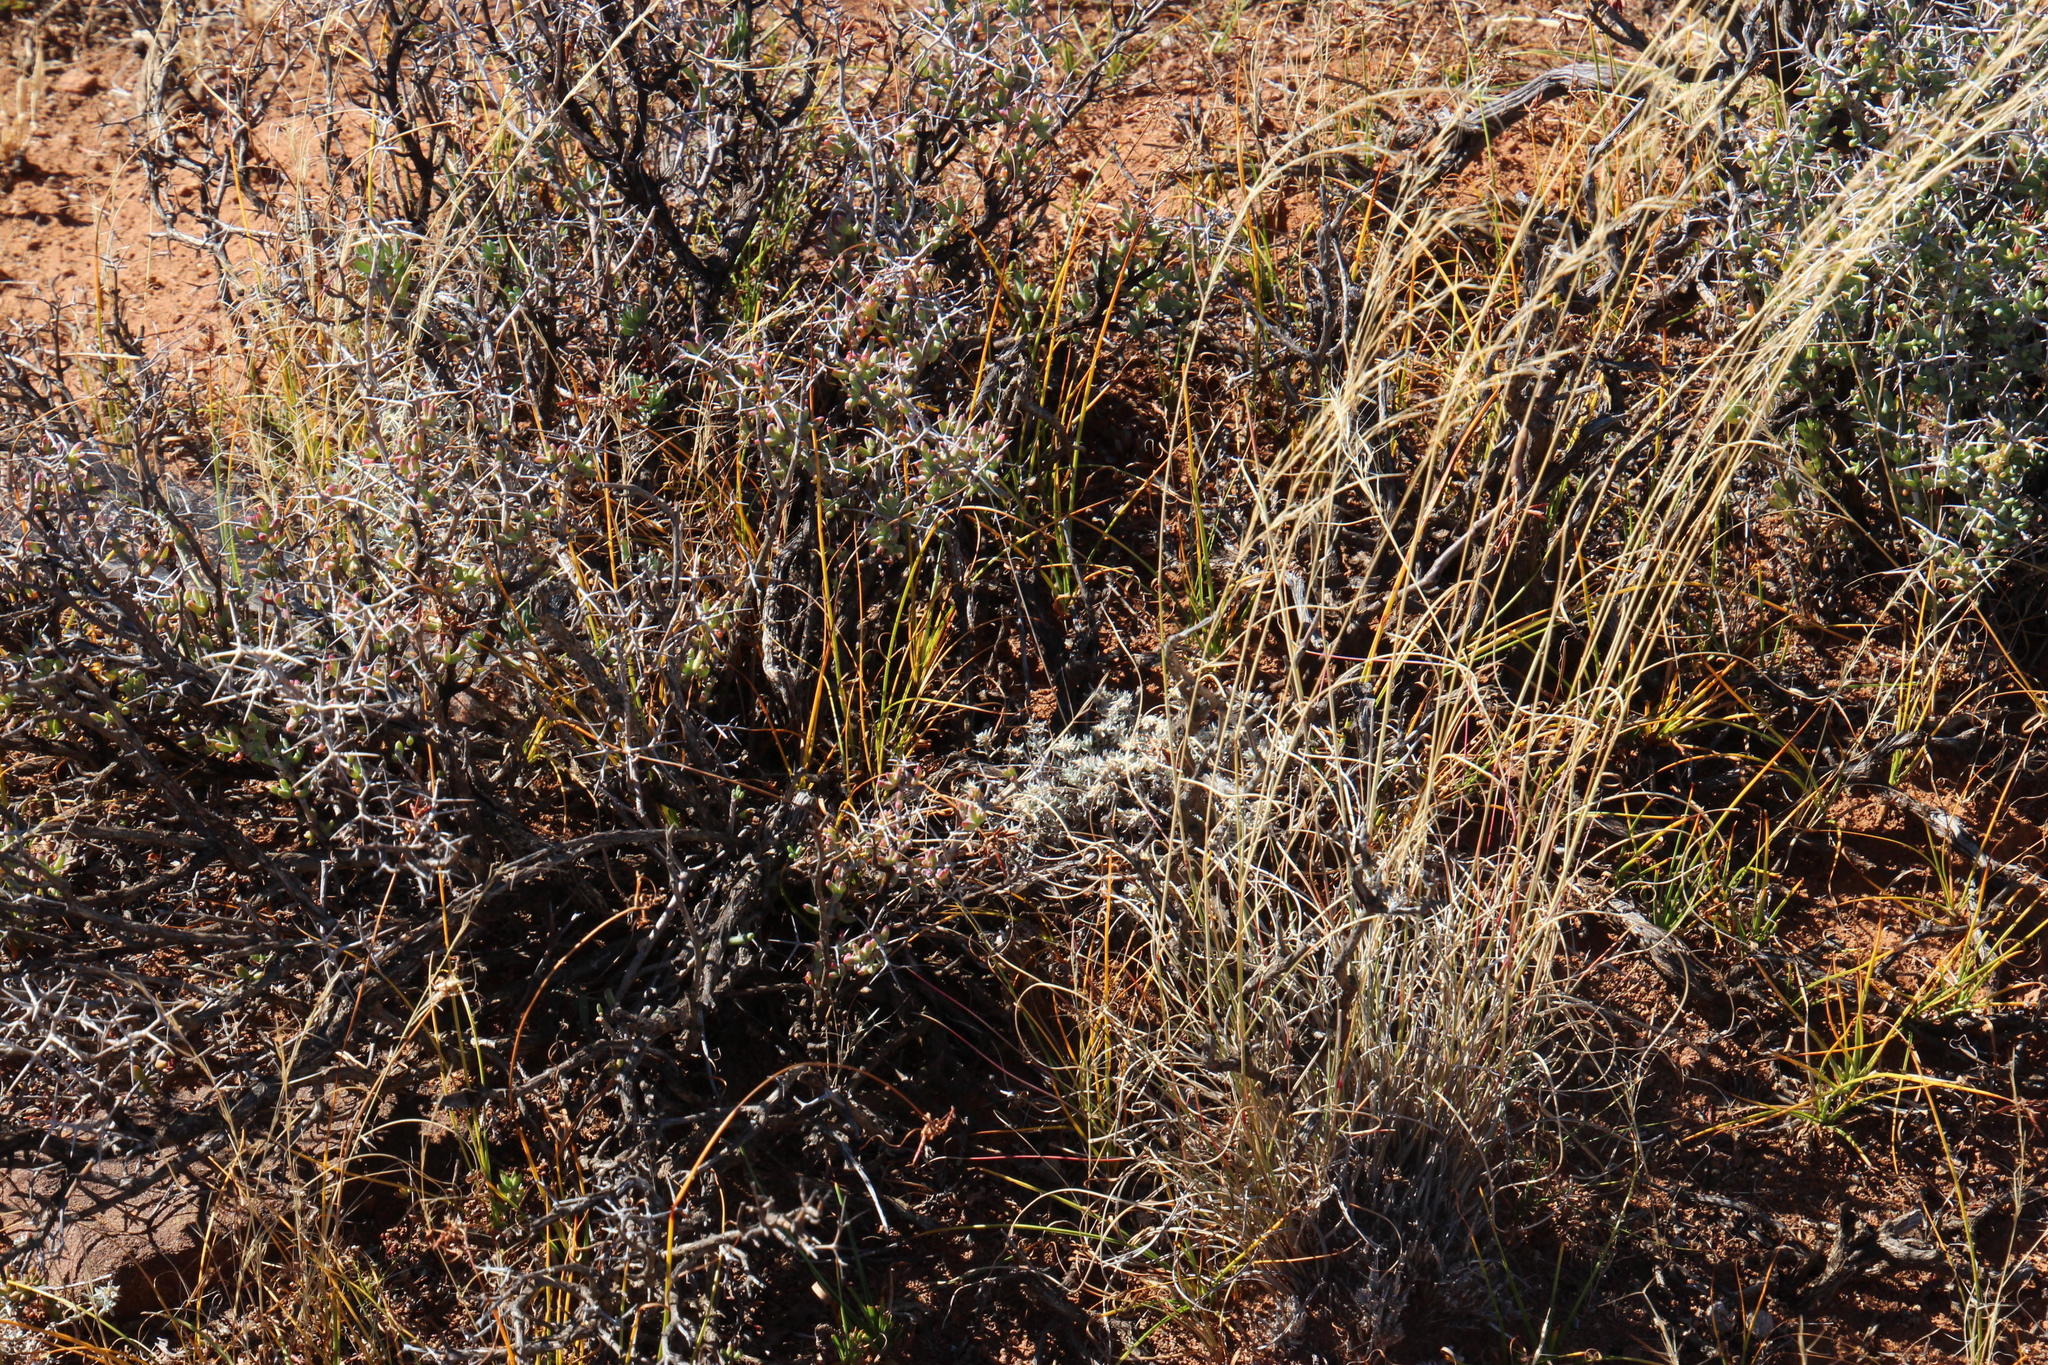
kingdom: Plantae
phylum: Tracheophyta
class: Liliopsida
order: Poales
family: Cyperaceae
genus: Cyperus
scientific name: Cyperus usitatus
